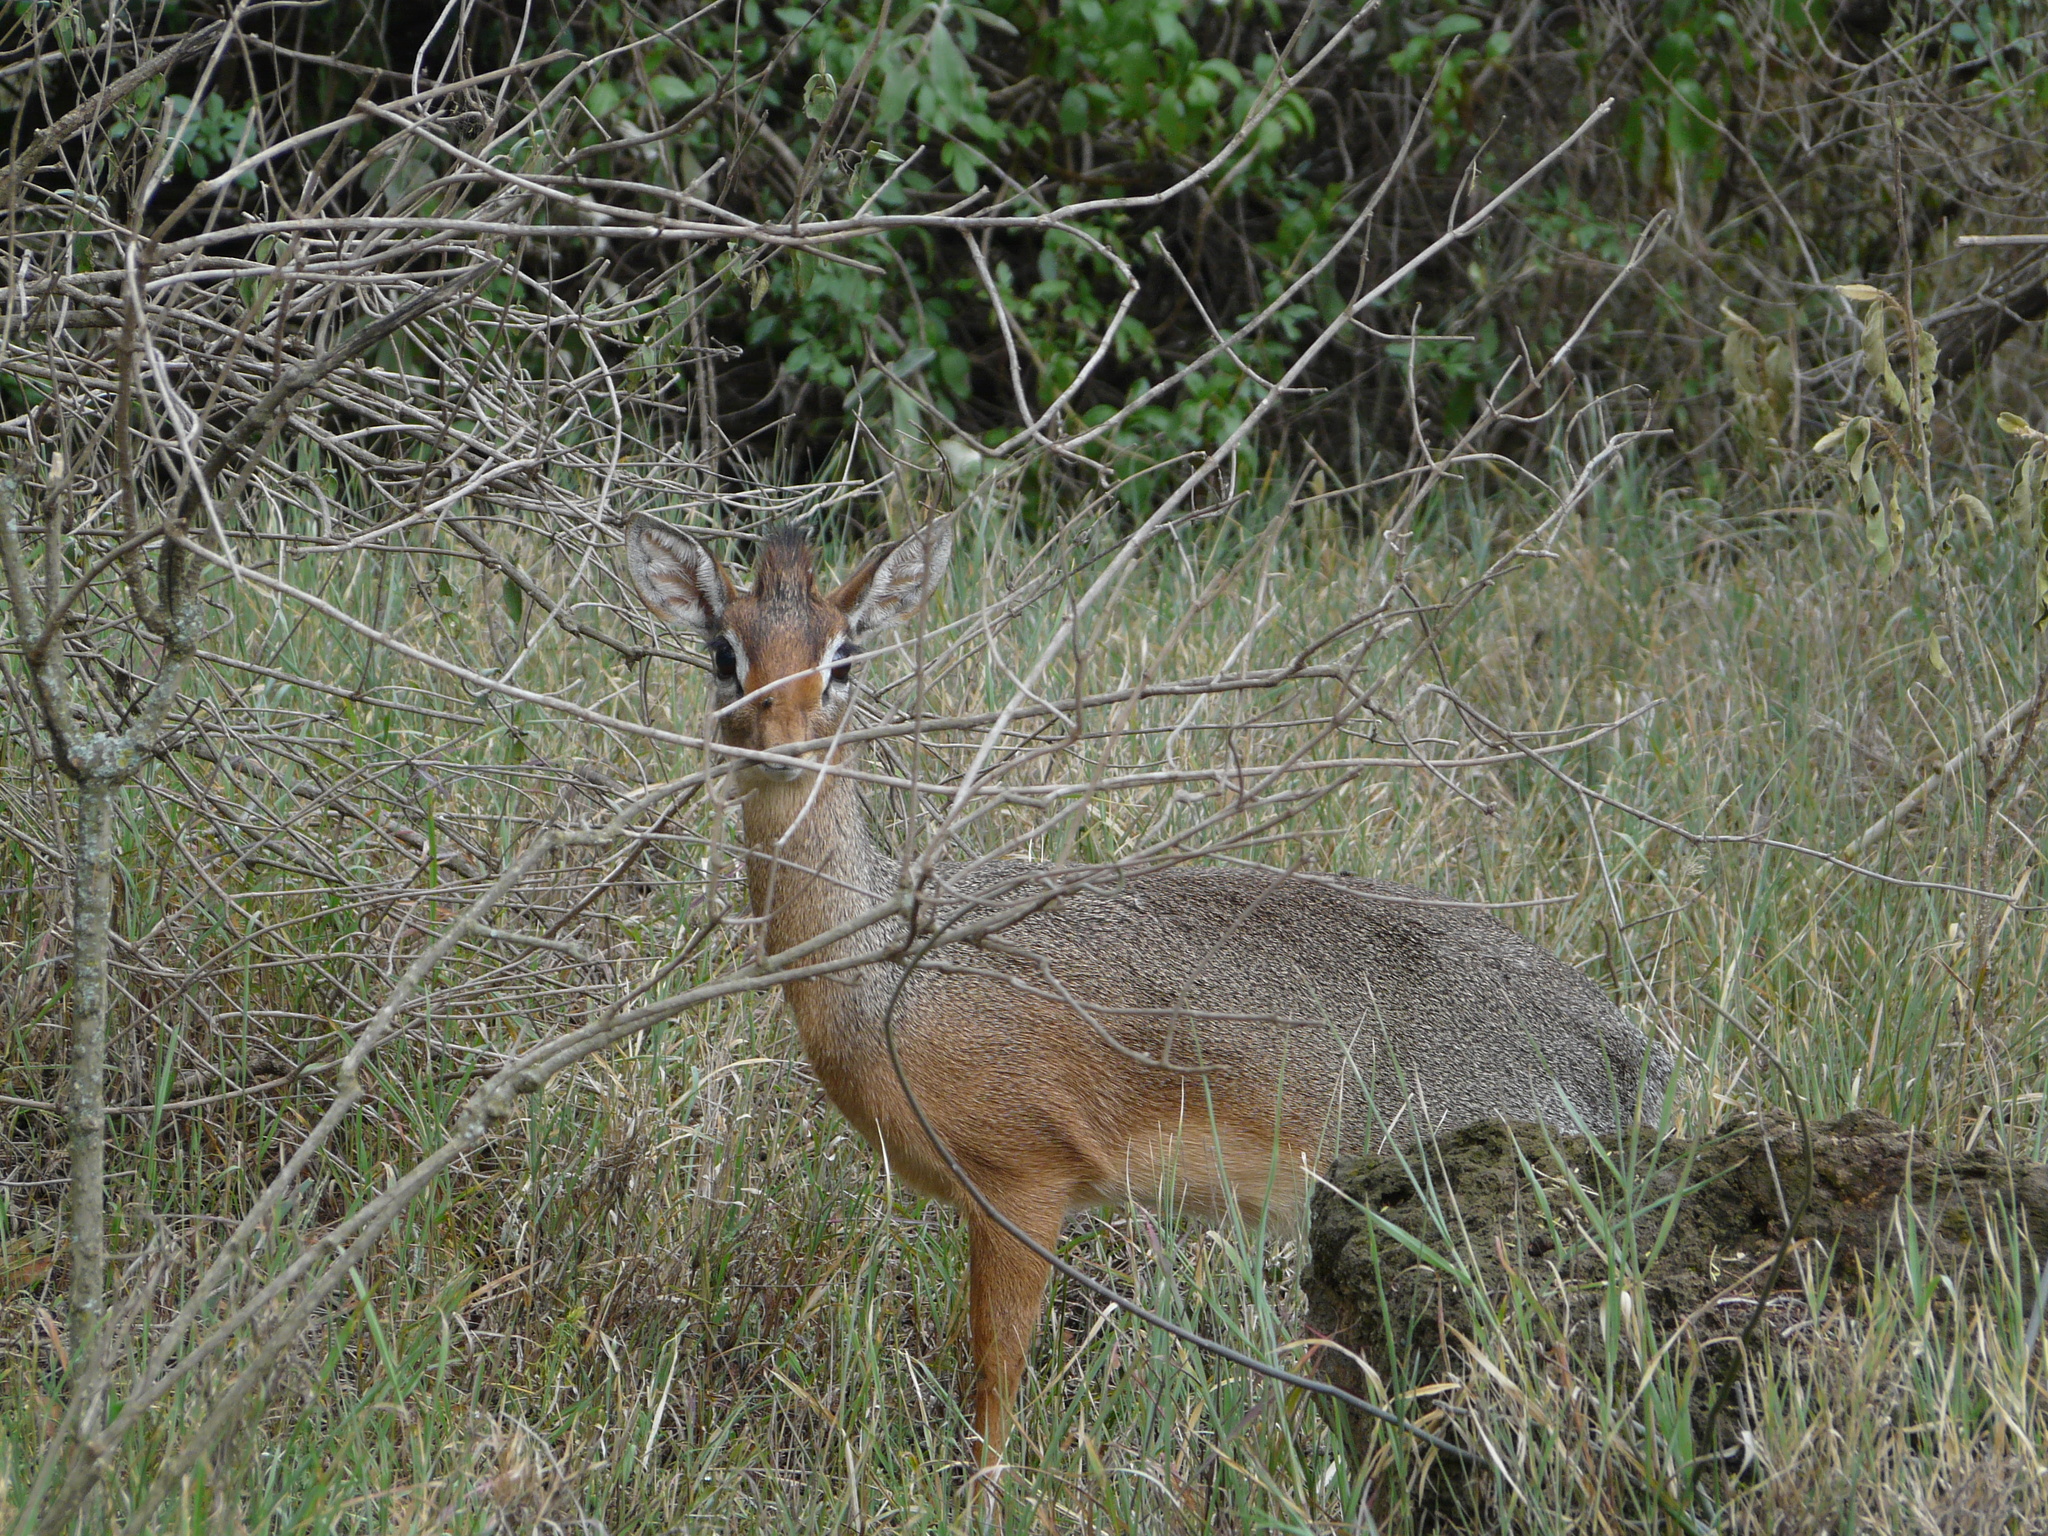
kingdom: Animalia
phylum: Chordata
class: Mammalia
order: Artiodactyla
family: Bovidae
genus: Madoqua
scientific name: Madoqua
